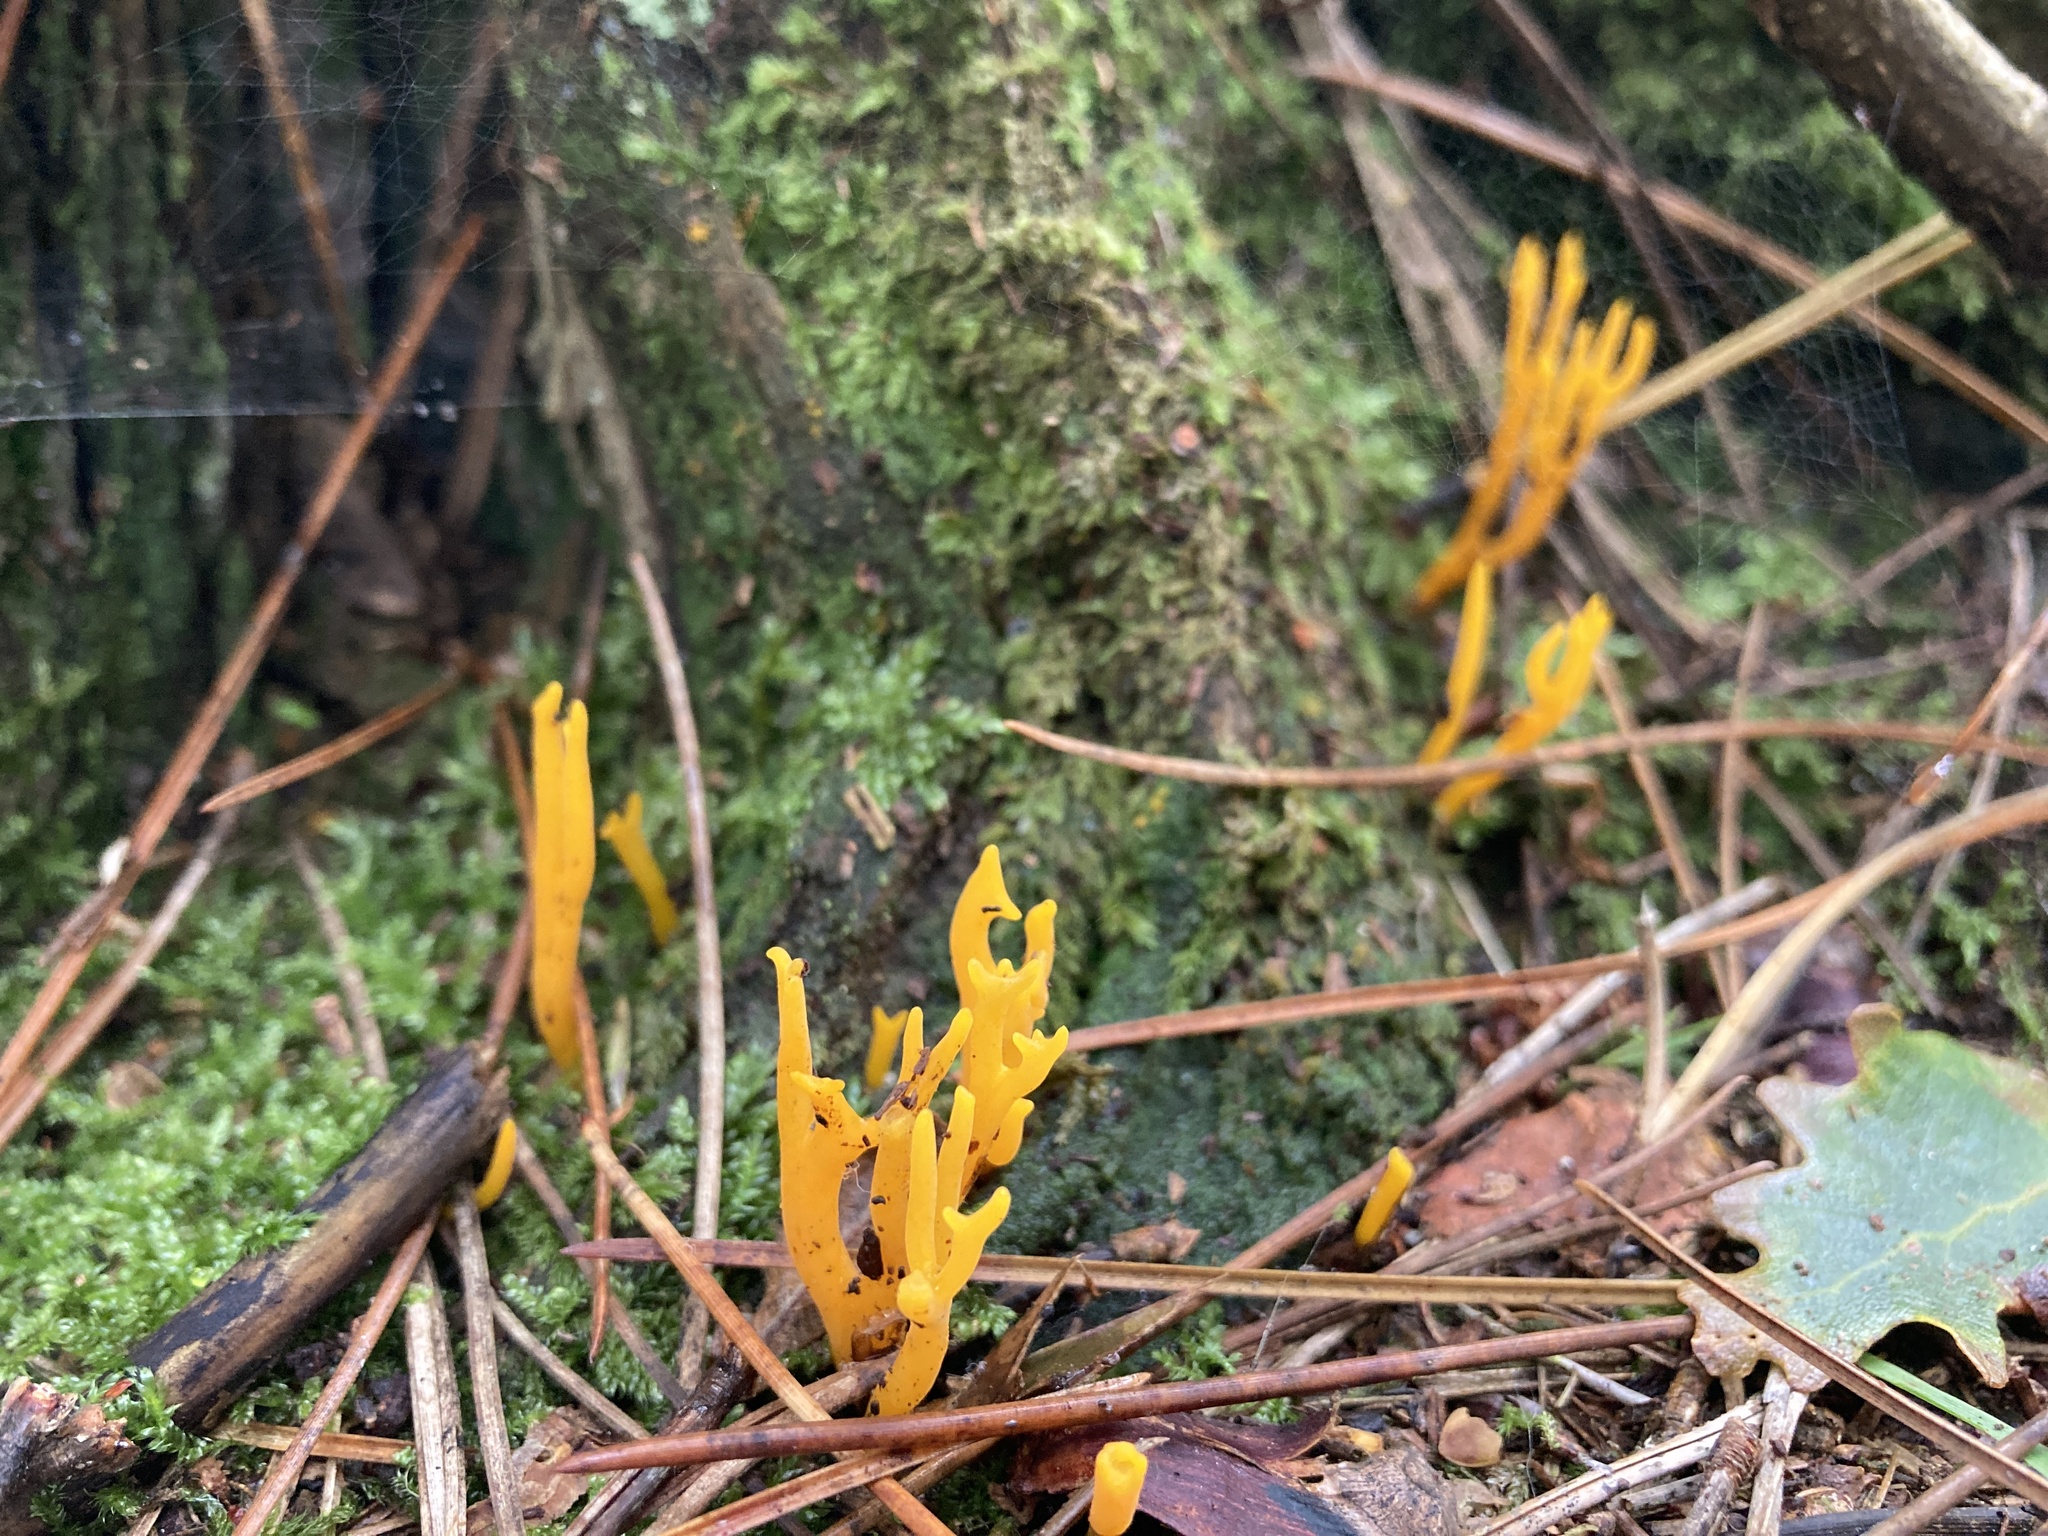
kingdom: Fungi
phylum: Basidiomycota
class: Dacrymycetes
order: Dacrymycetales
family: Dacrymycetaceae
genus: Calocera
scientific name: Calocera viscosa
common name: Yellow stagshorn
